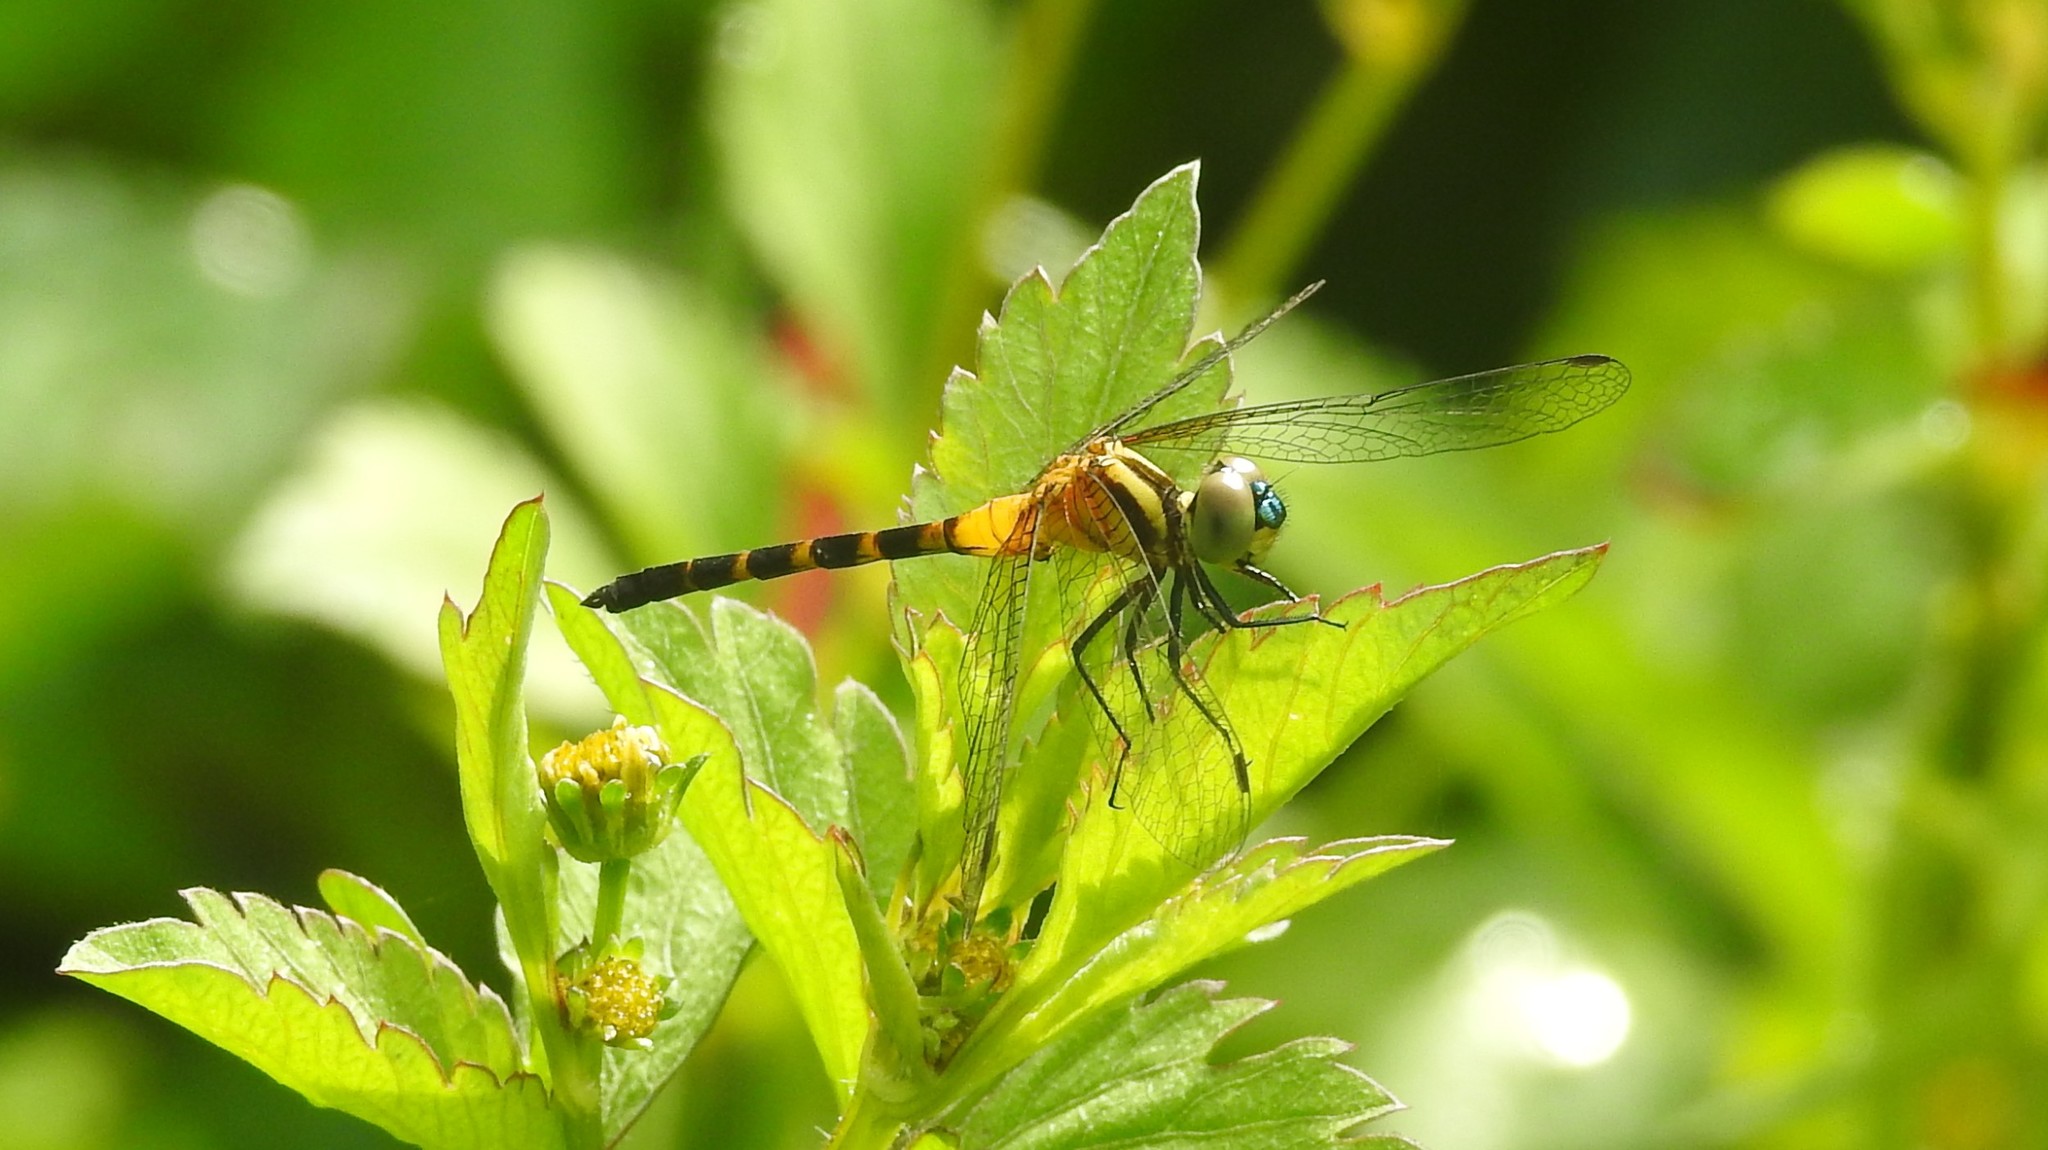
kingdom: Animalia
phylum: Arthropoda
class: Insecta
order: Odonata
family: Libellulidae
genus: Epithemis
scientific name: Epithemis mariae
